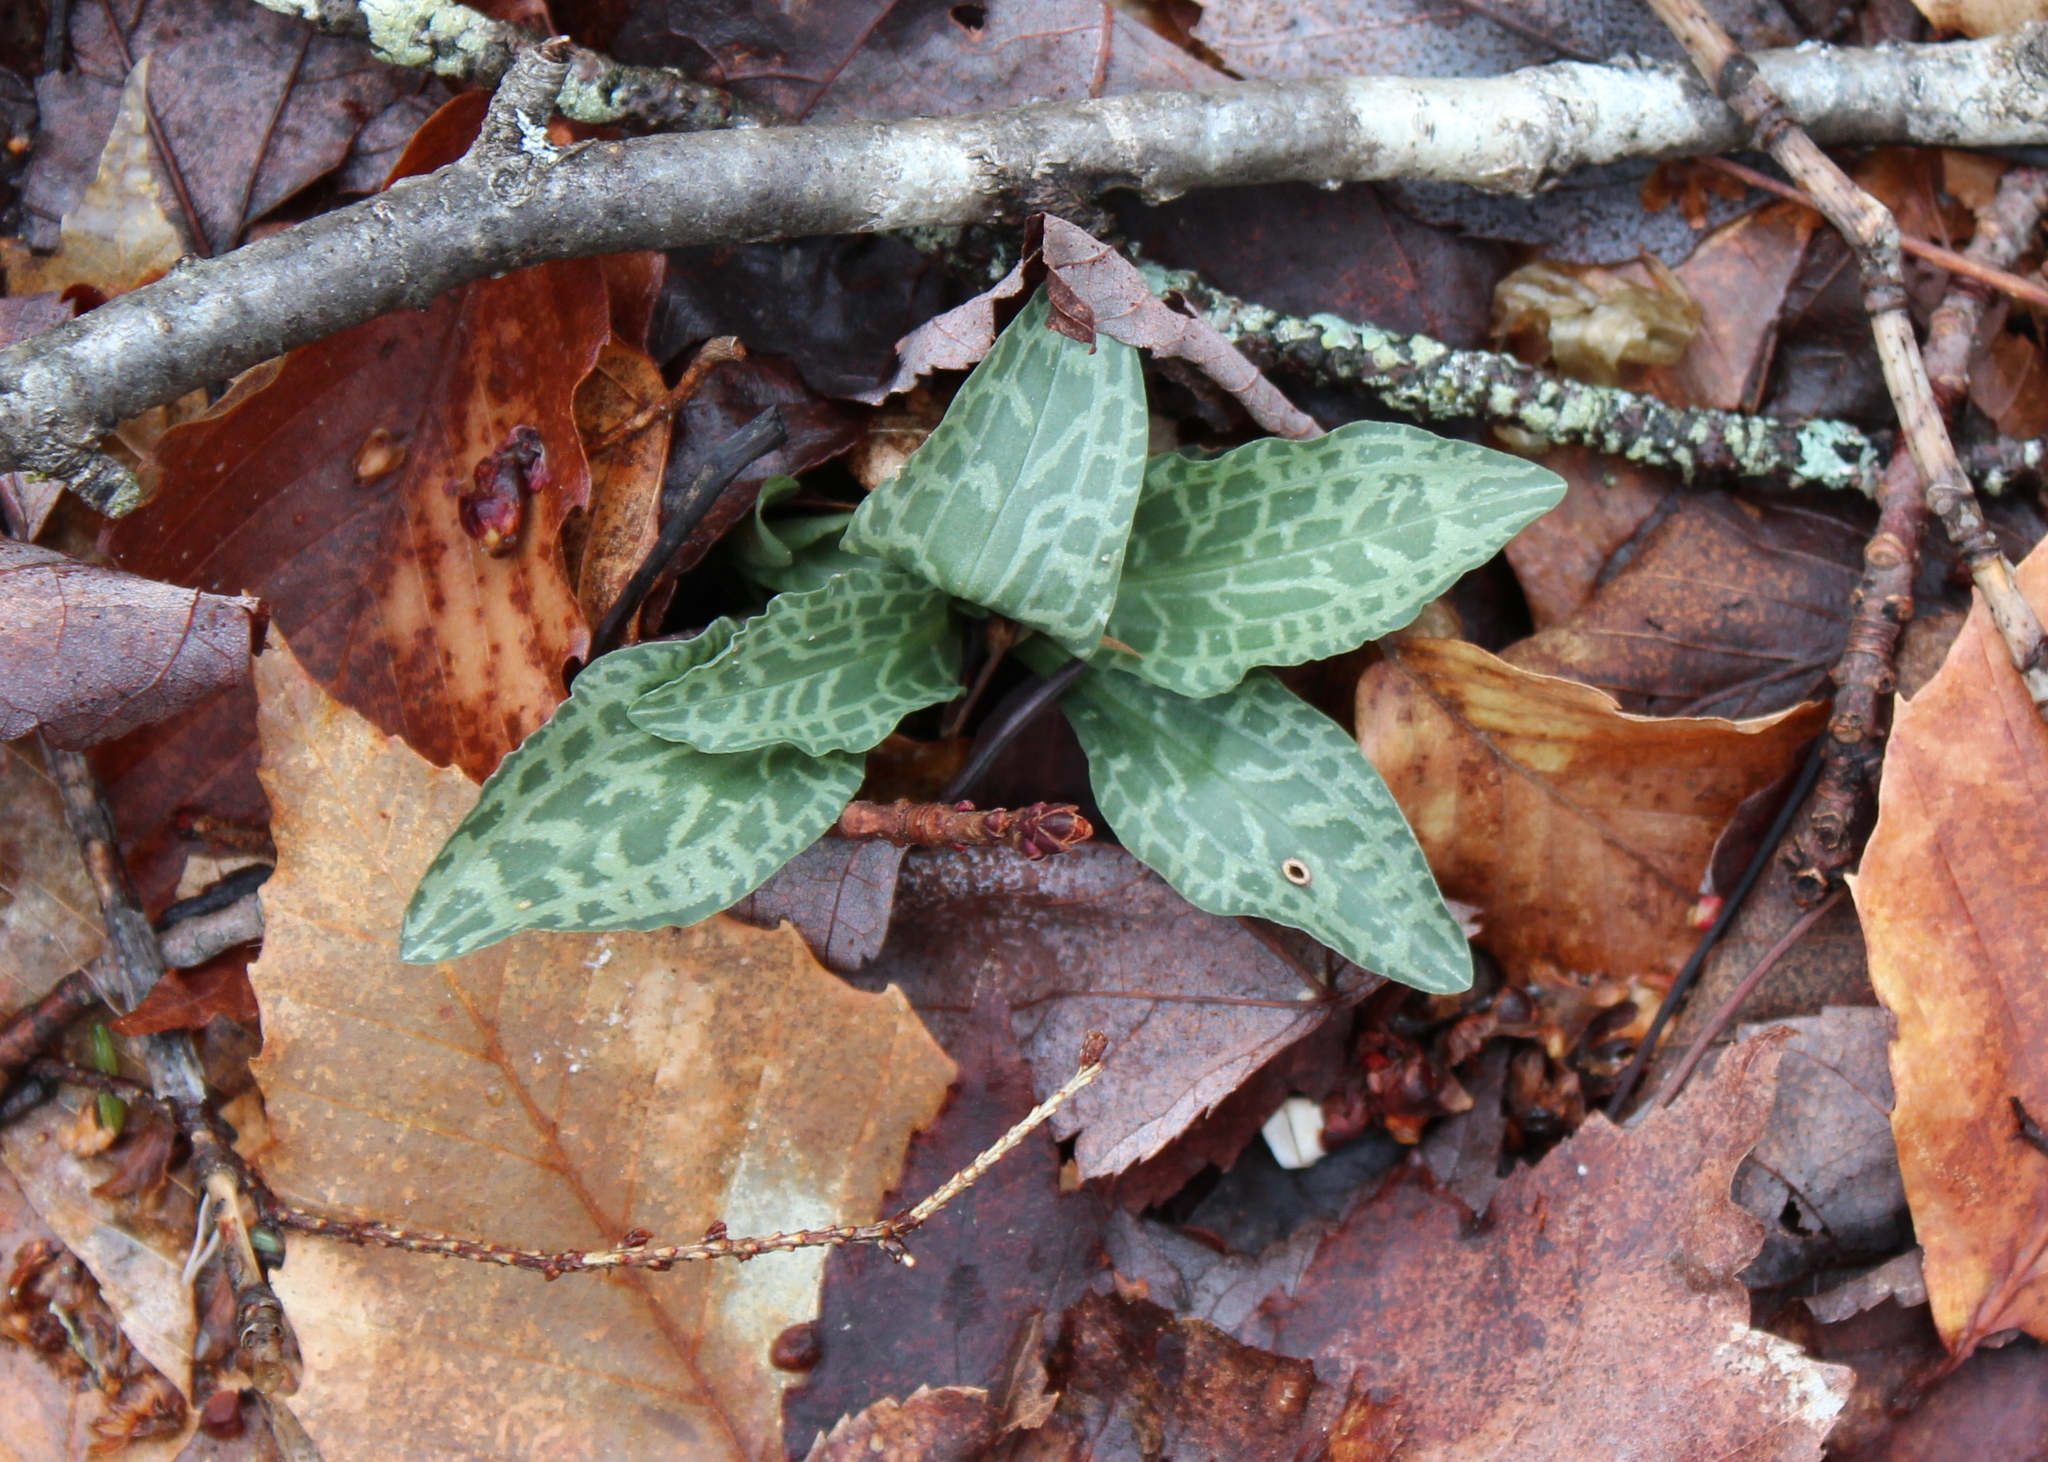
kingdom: Plantae
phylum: Tracheophyta
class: Liliopsida
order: Asparagales
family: Orchidaceae
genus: Goodyera
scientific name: Goodyera tesselata
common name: Checkered rattlesnake-plantain
